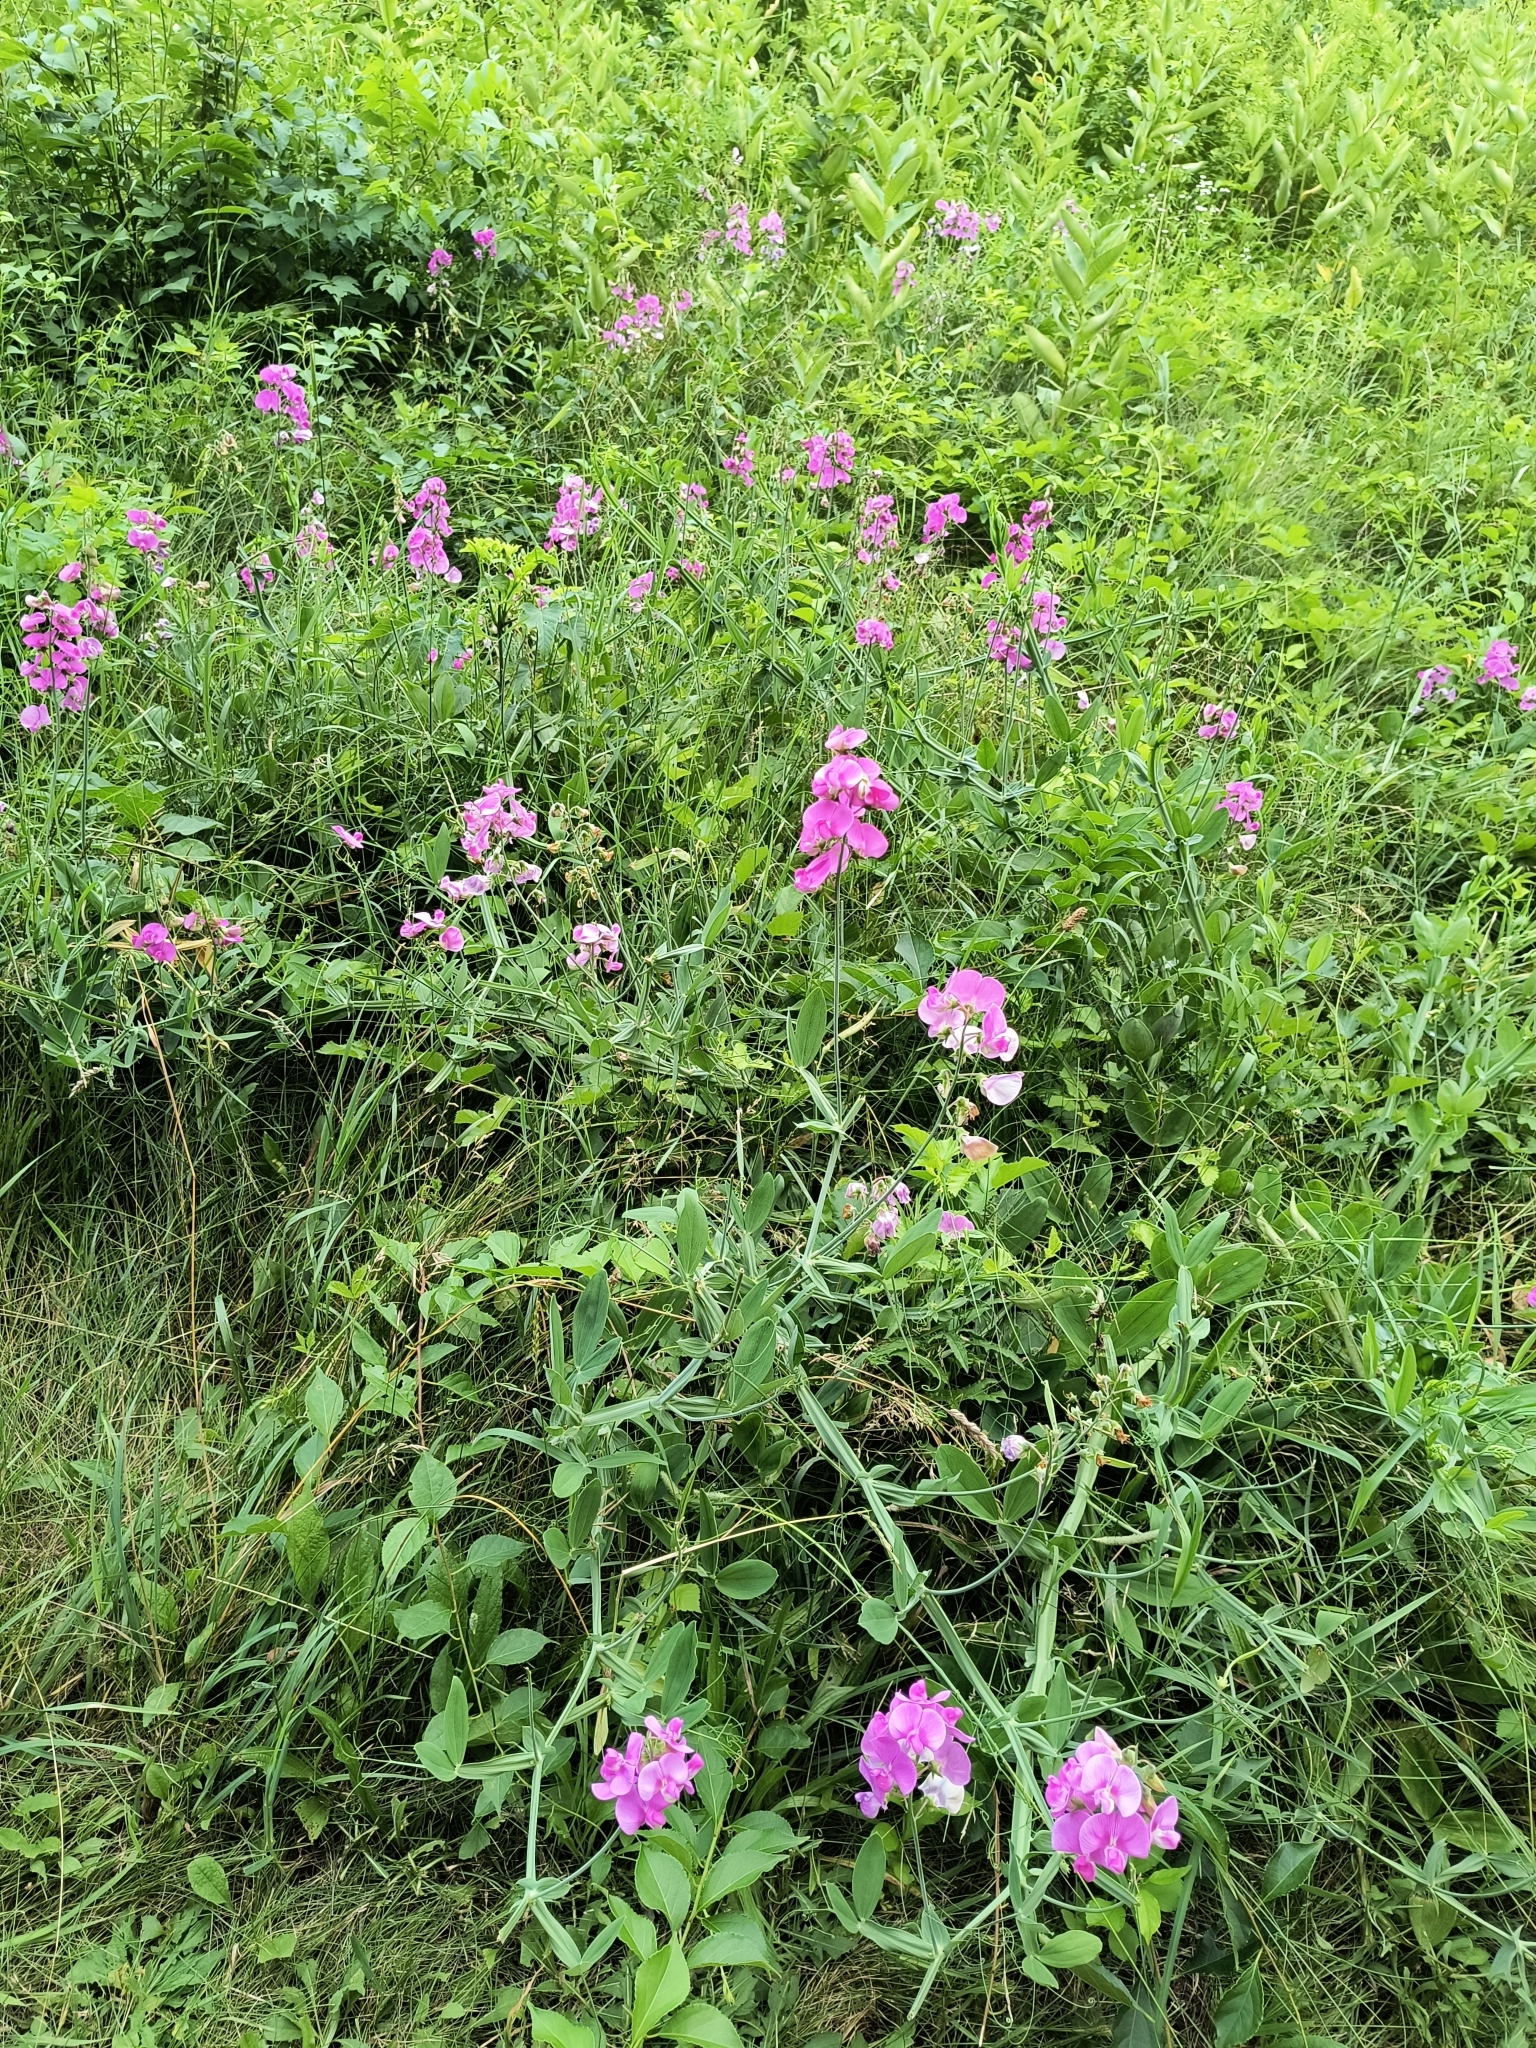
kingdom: Plantae
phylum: Tracheophyta
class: Magnoliopsida
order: Fabales
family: Fabaceae
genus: Lathyrus
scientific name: Lathyrus latifolius
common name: Perennial pea
